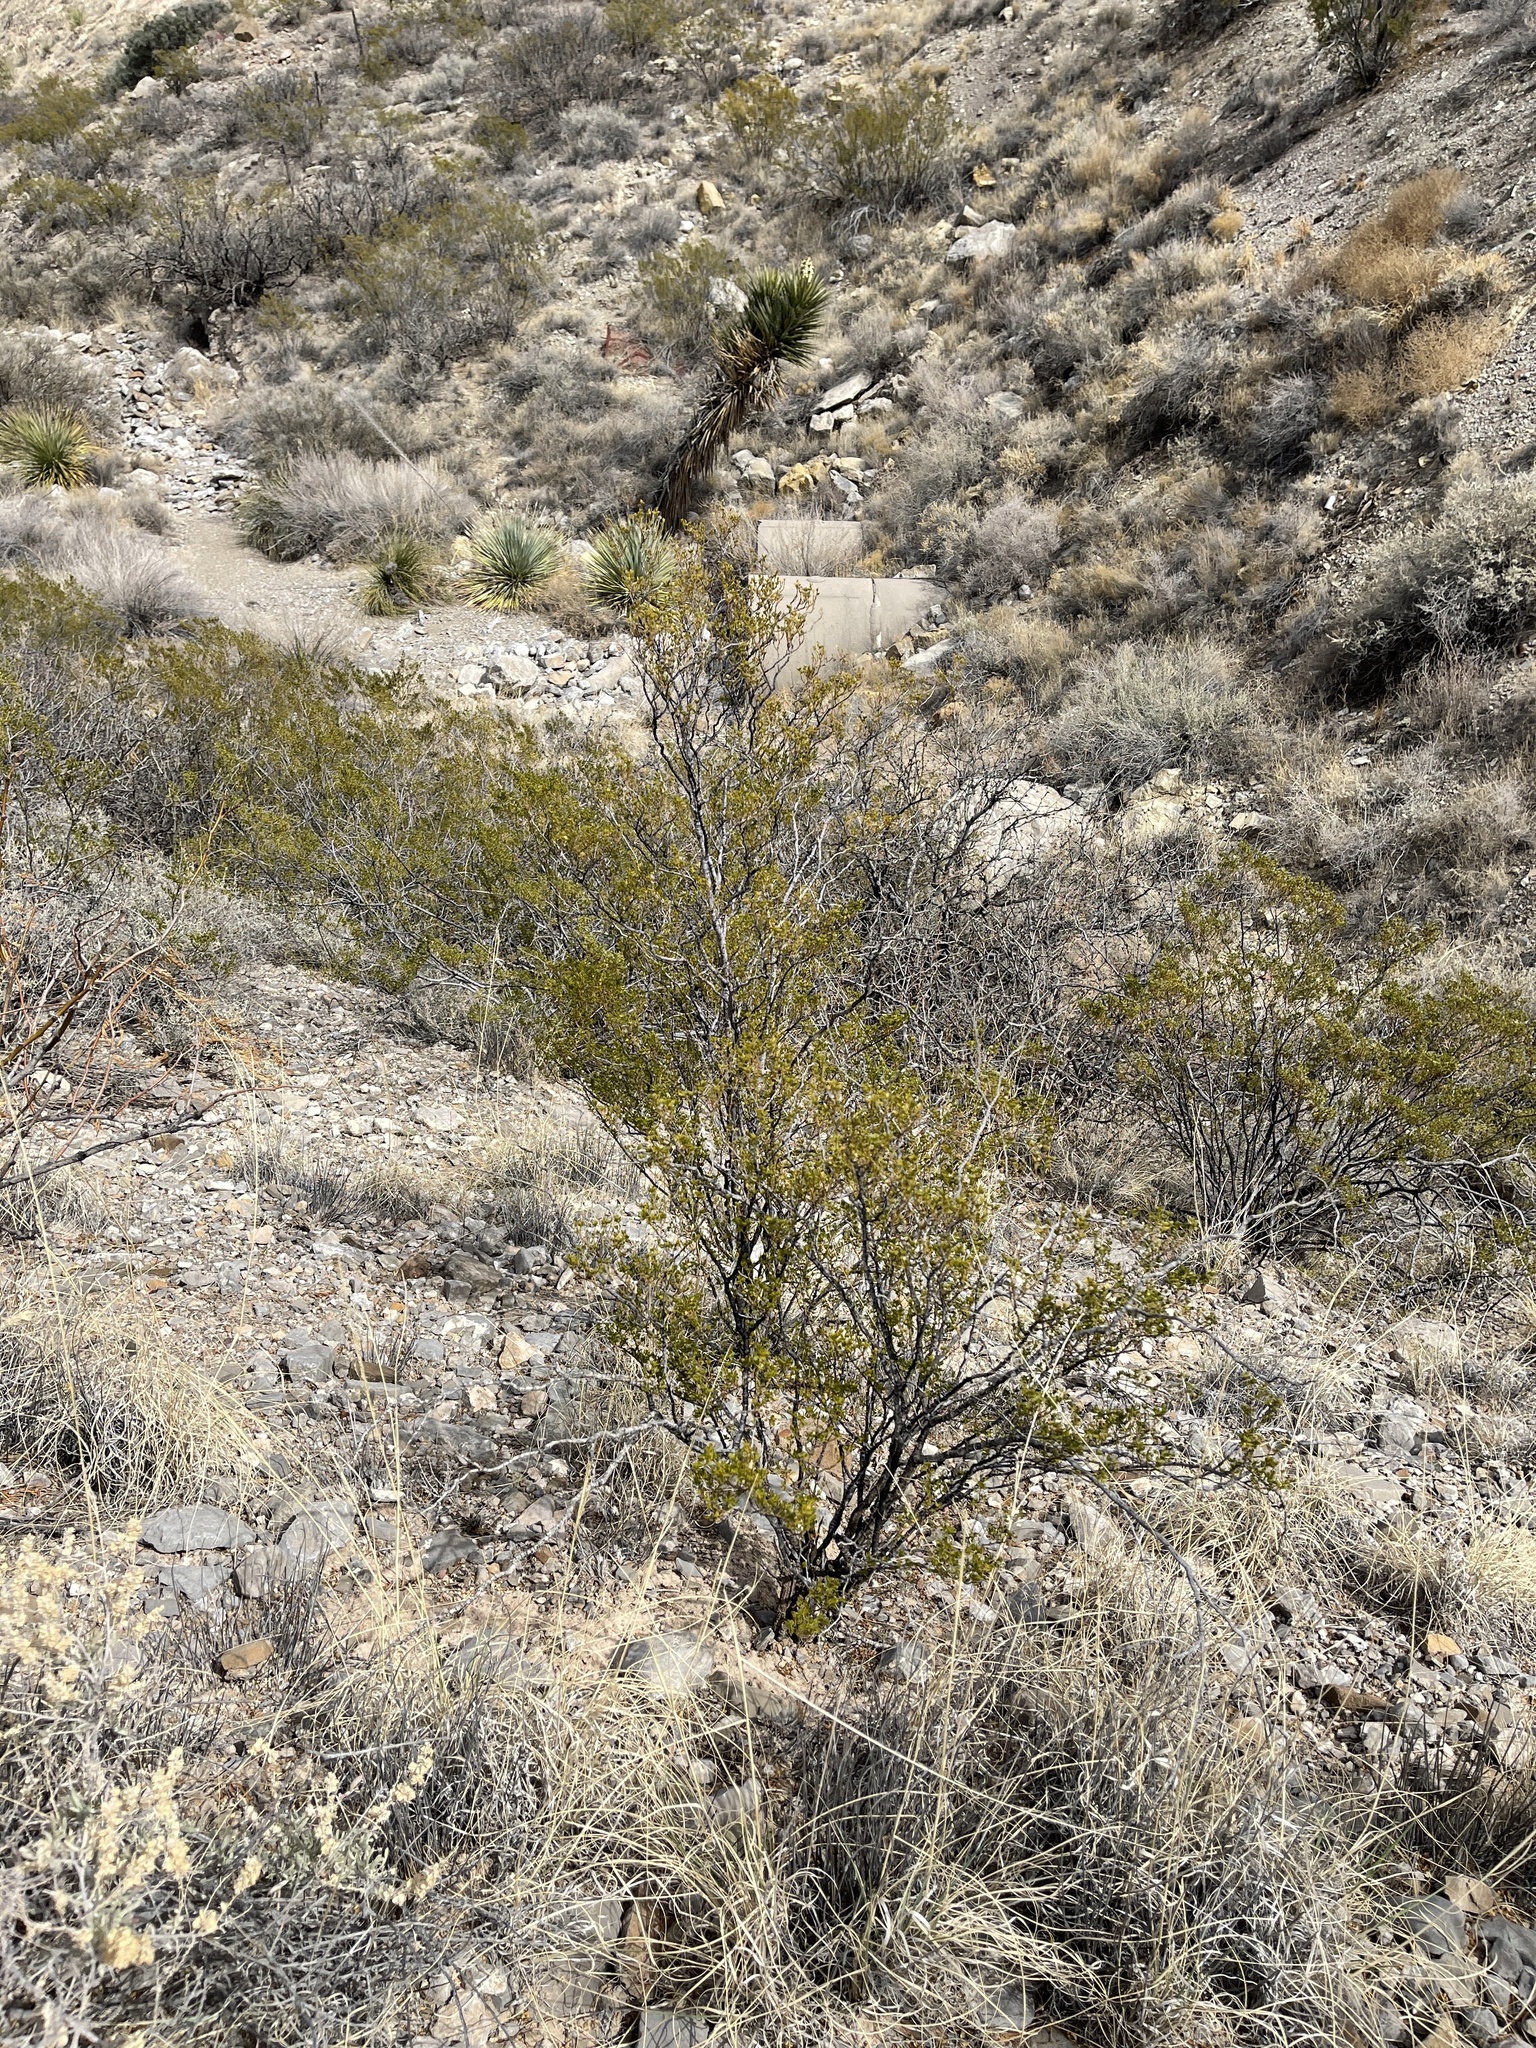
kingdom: Plantae
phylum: Tracheophyta
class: Magnoliopsida
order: Zygophyllales
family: Zygophyllaceae
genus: Larrea
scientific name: Larrea tridentata
